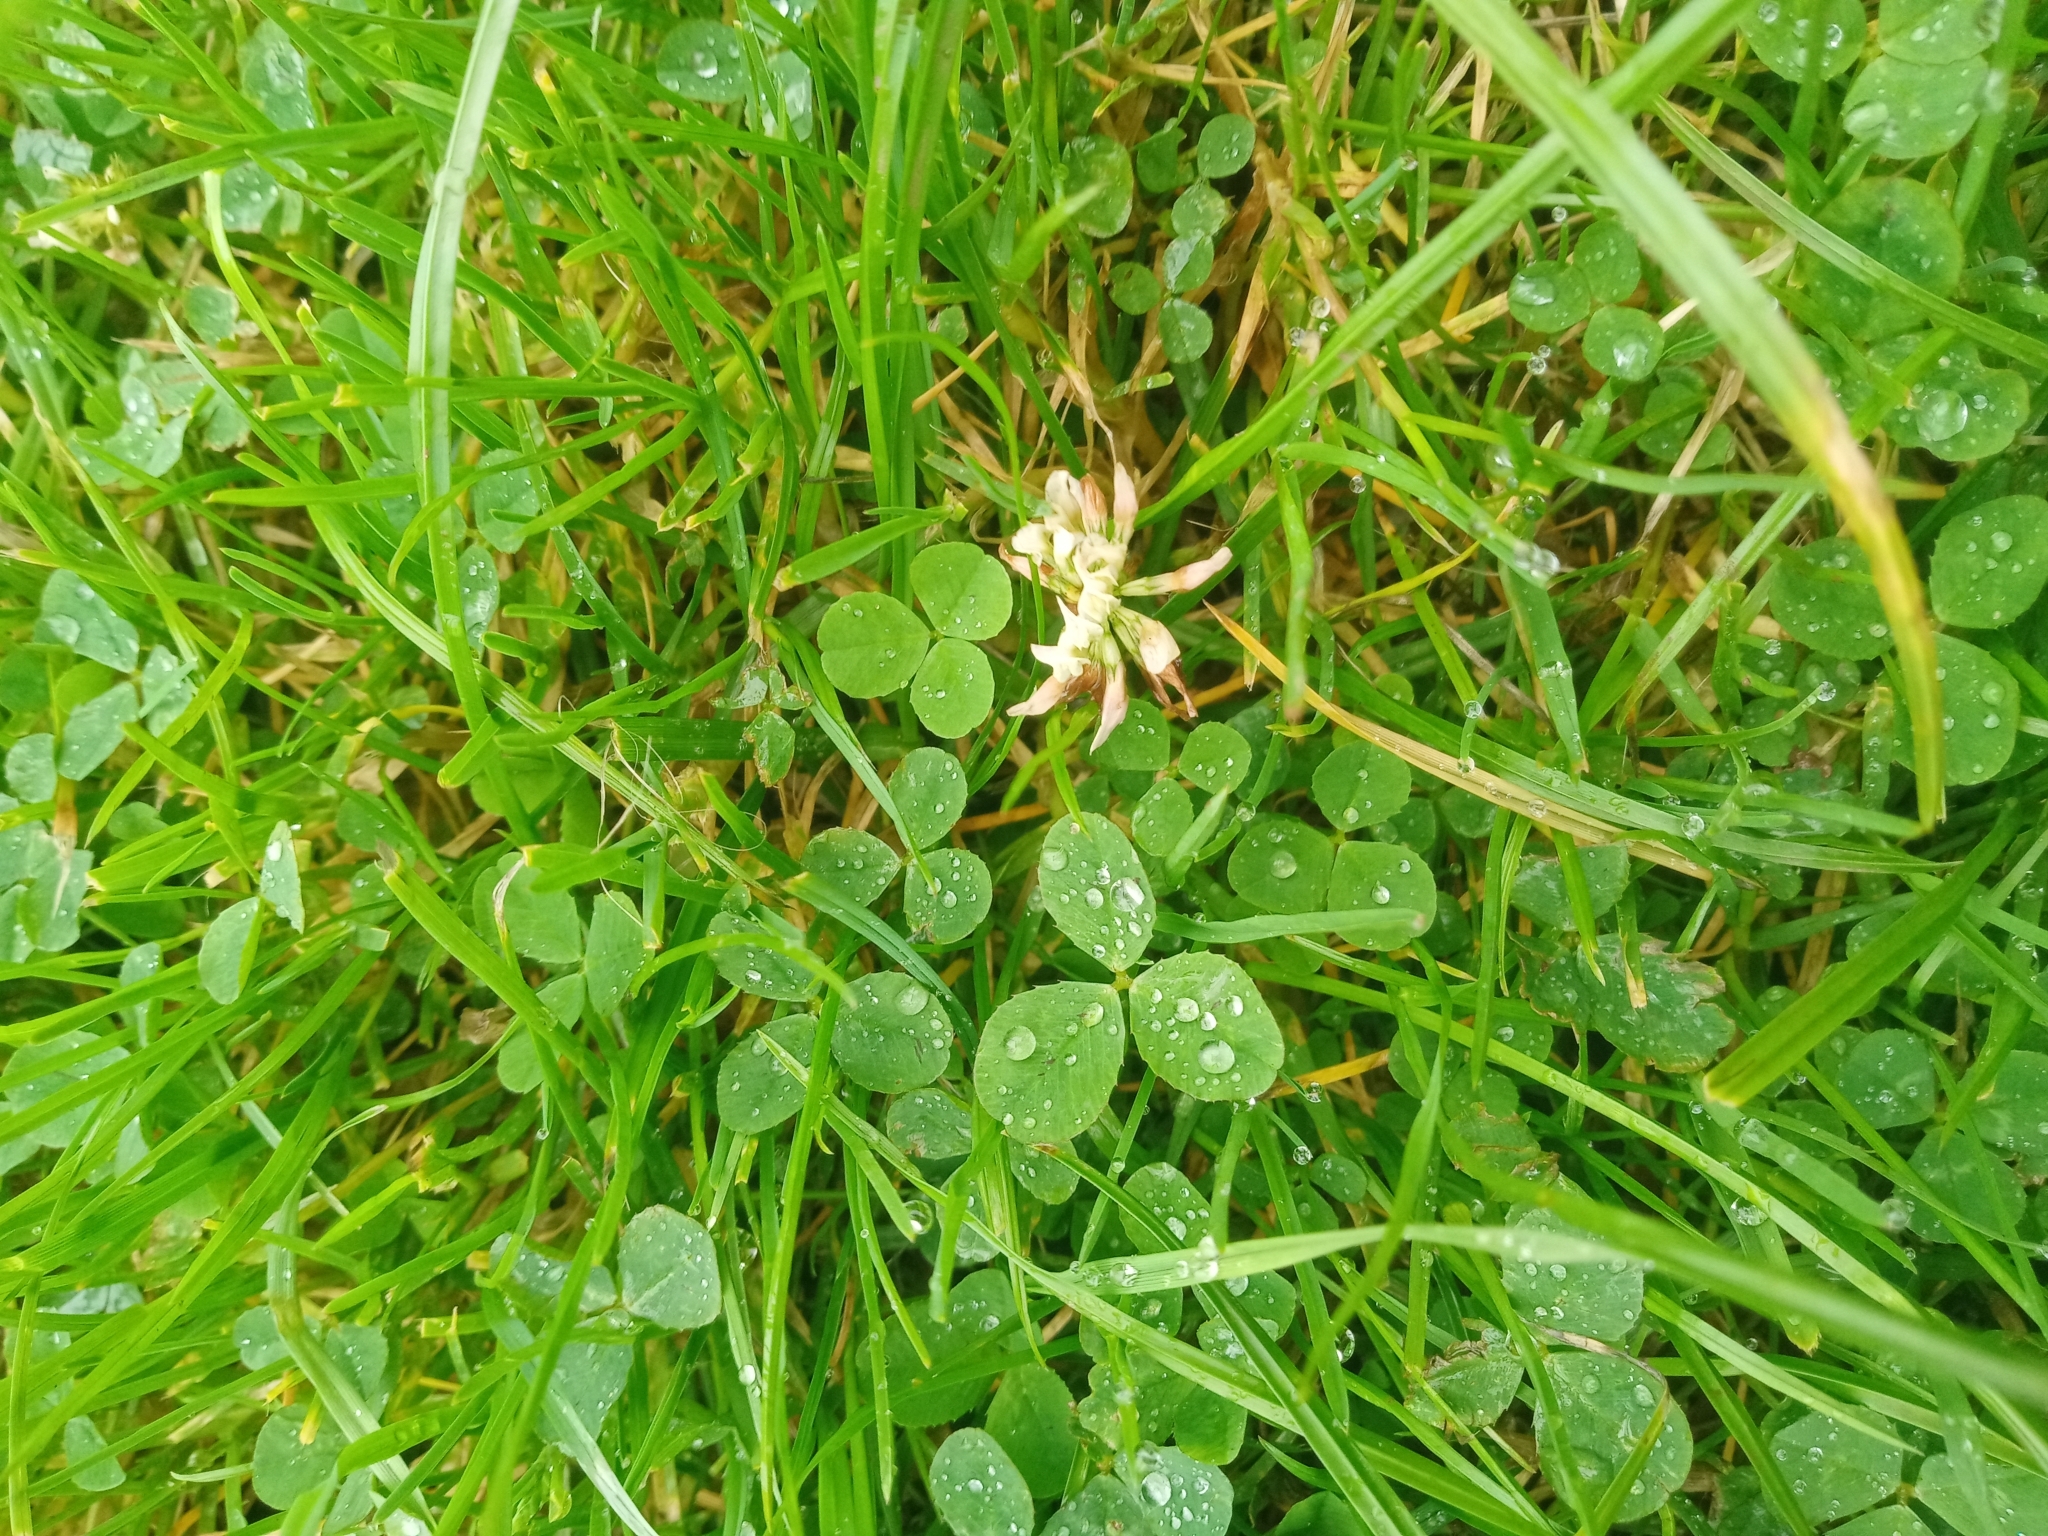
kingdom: Plantae
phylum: Tracheophyta
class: Magnoliopsida
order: Fabales
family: Fabaceae
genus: Trifolium
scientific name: Trifolium repens
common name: White clover
